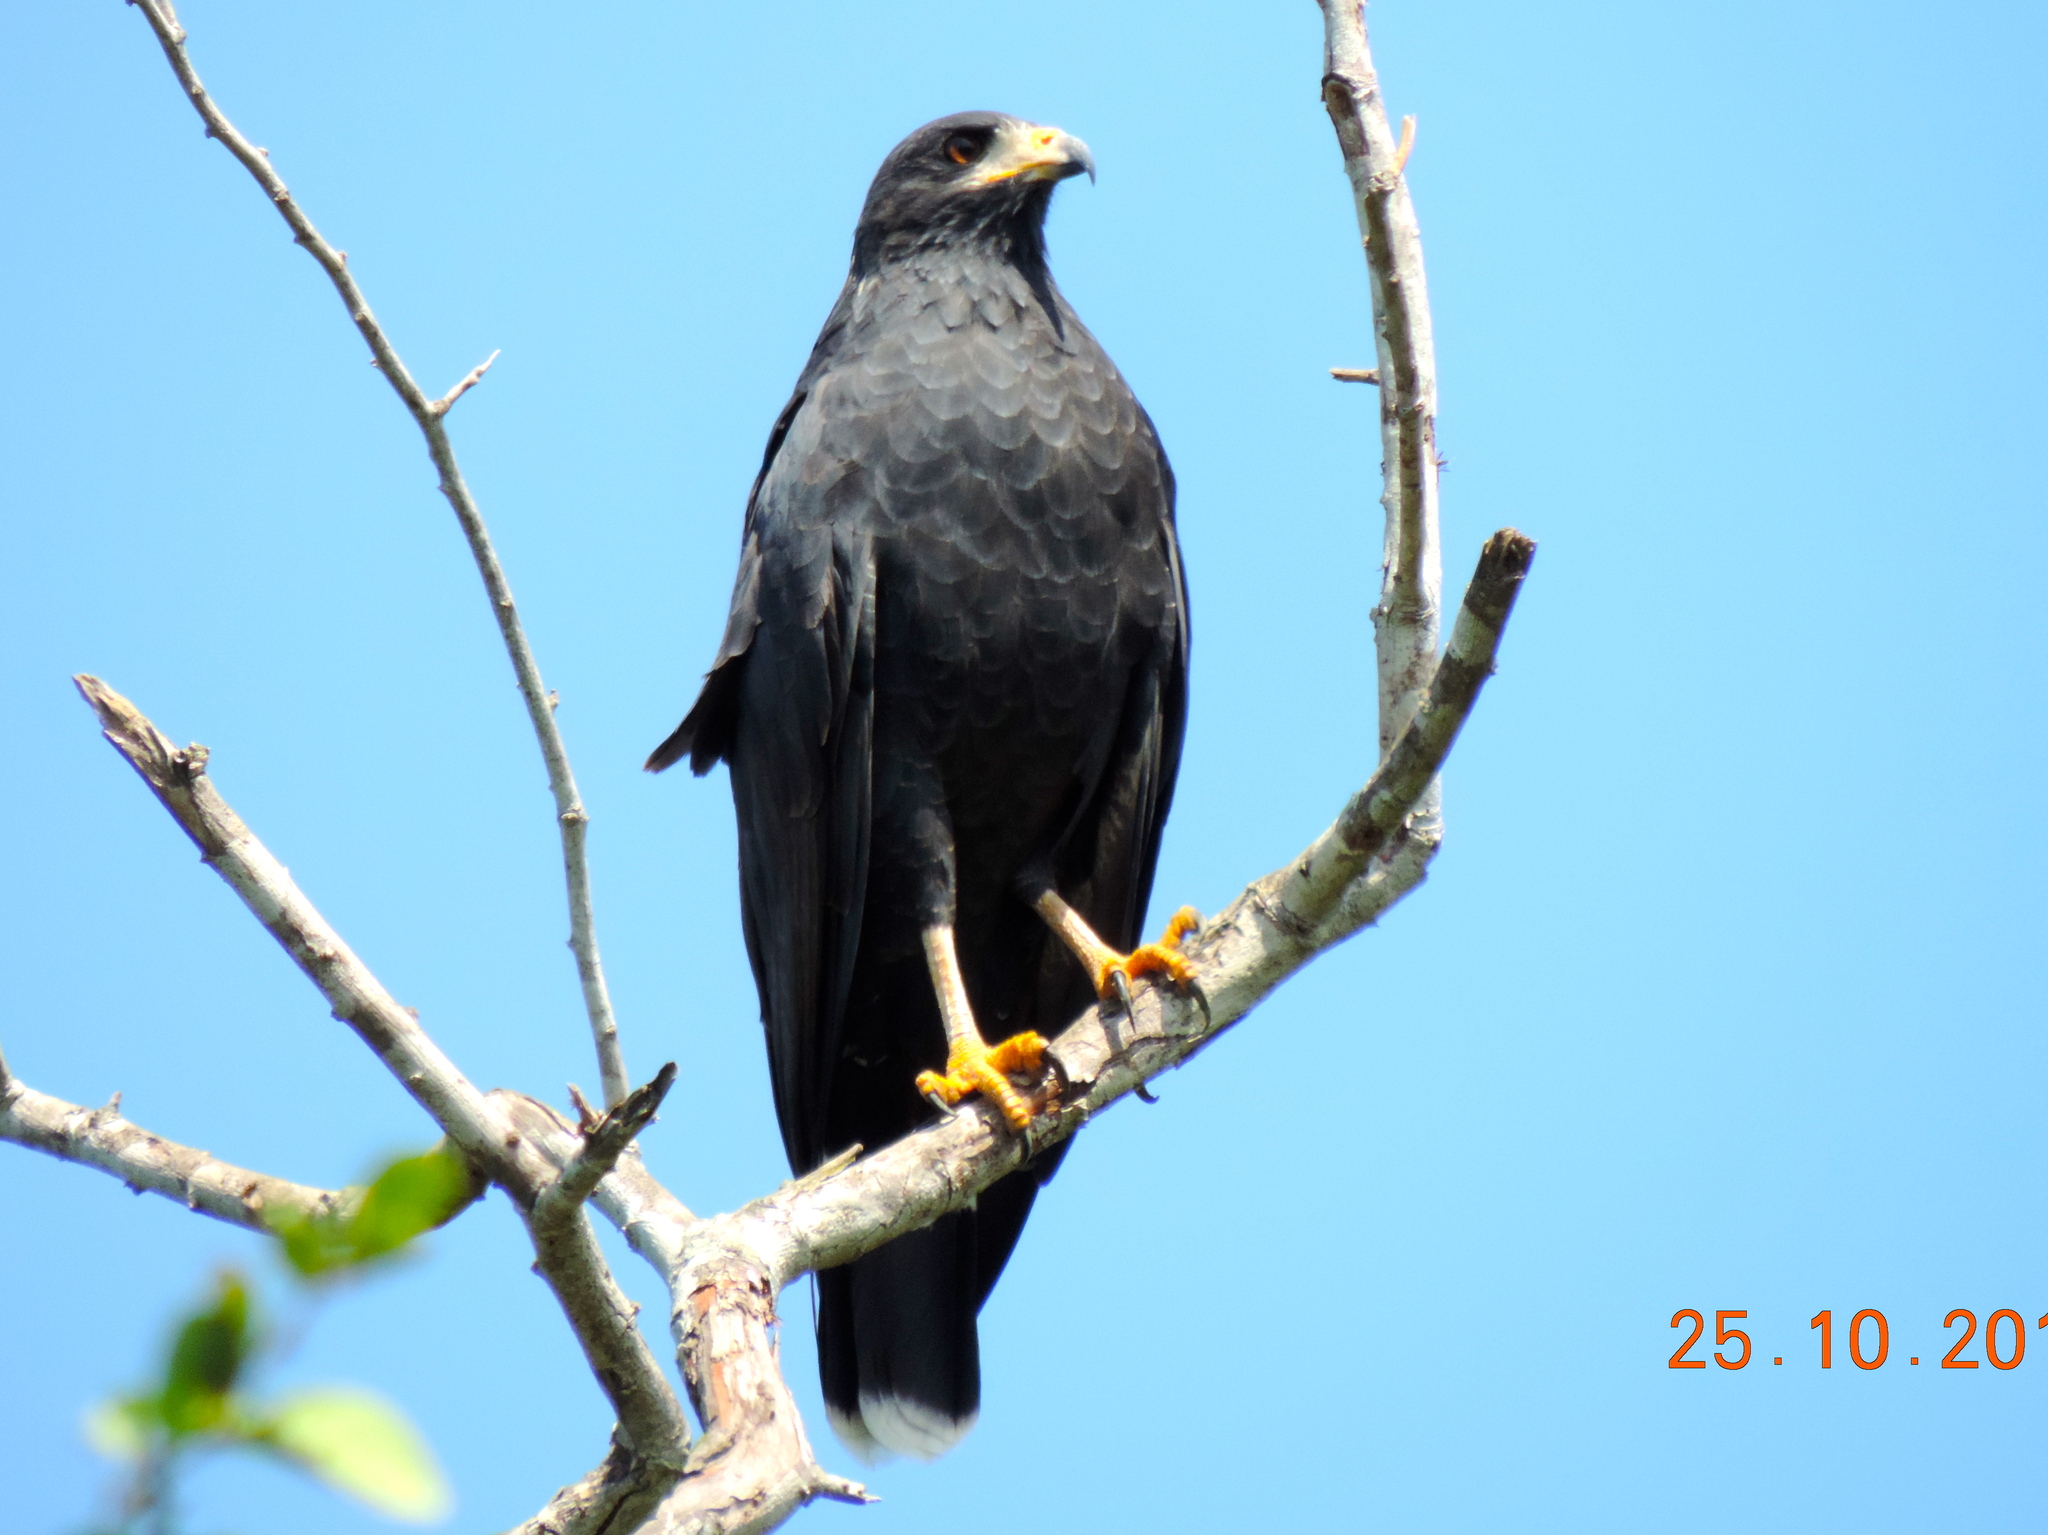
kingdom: Animalia
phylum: Chordata
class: Aves
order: Accipitriformes
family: Accipitridae
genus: Buteogallus
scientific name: Buteogallus anthracinus
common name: Common black hawk
